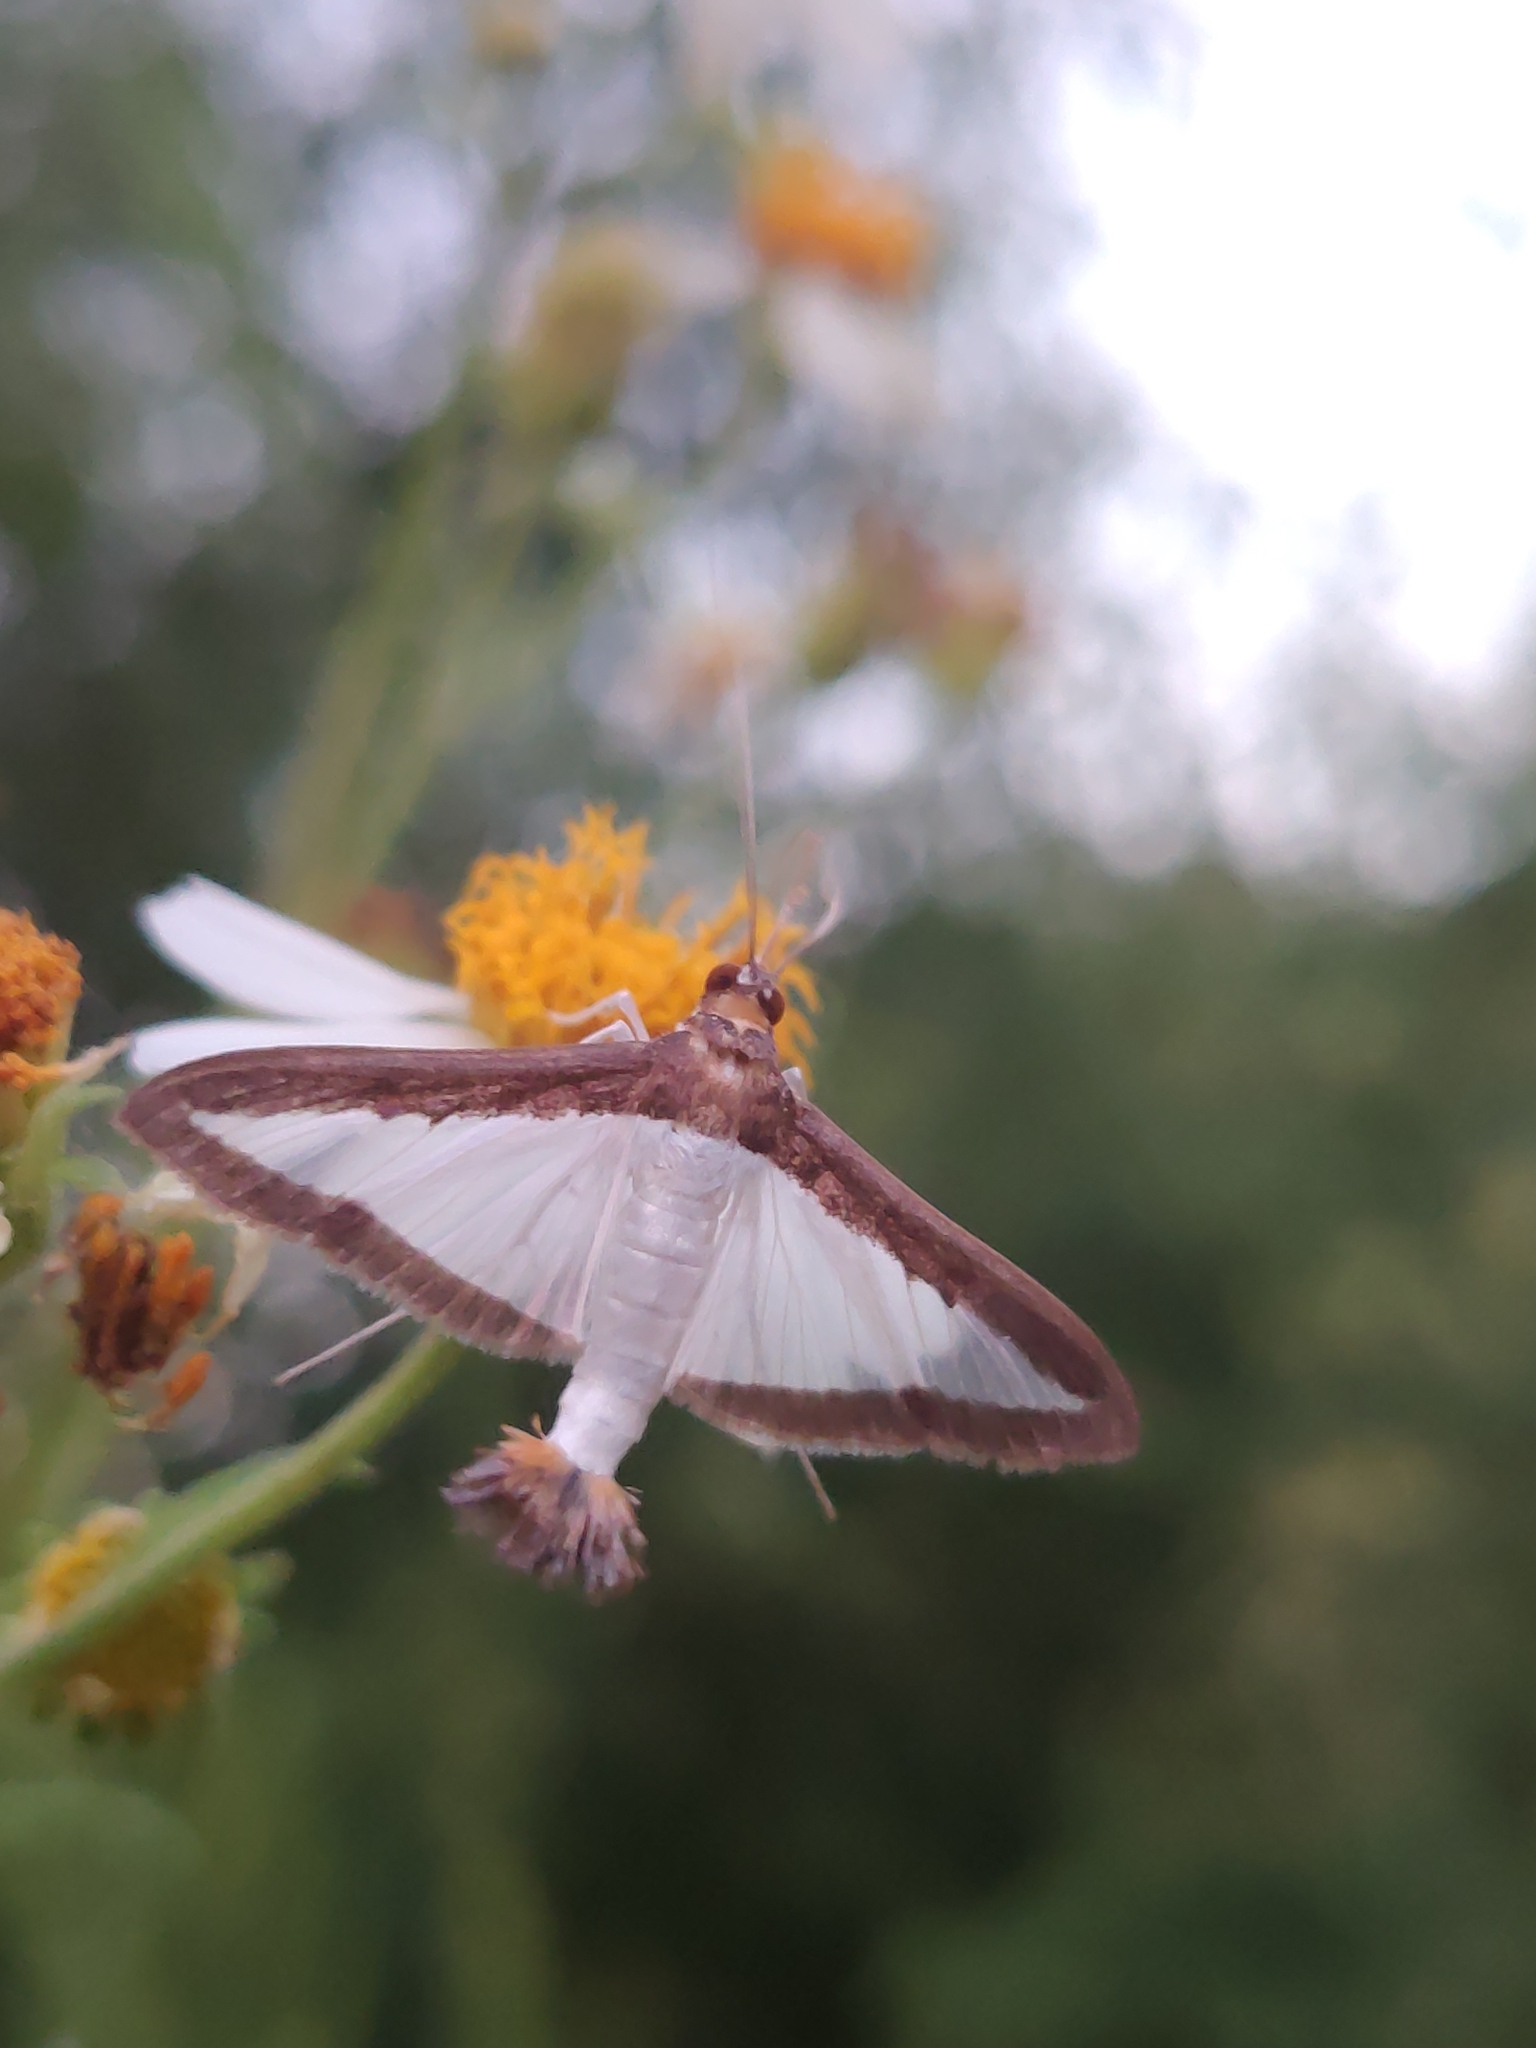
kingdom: Animalia
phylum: Arthropoda
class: Insecta
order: Lepidoptera
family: Crambidae
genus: Diaphania
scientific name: Diaphania hyalinata
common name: Melonworm
